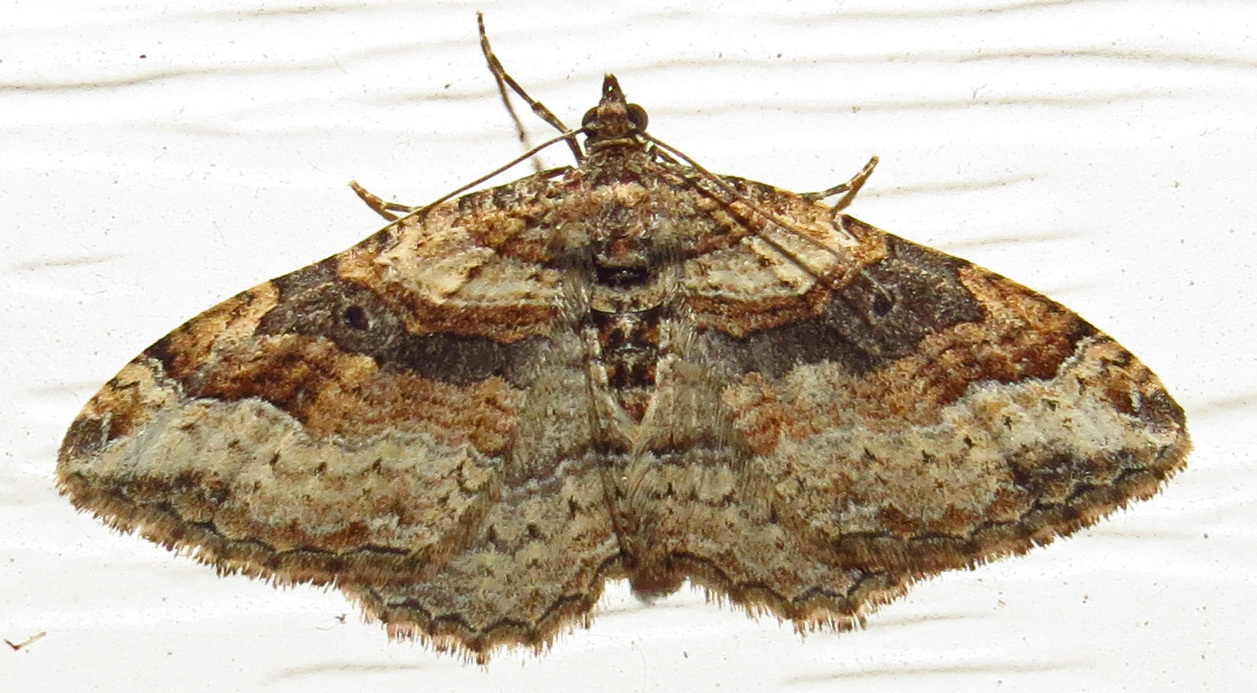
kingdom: Animalia
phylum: Arthropoda
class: Insecta
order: Lepidoptera
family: Geometridae
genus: Costaconvexa
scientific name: Costaconvexa centrostrigaria
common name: Bent-line carpet
